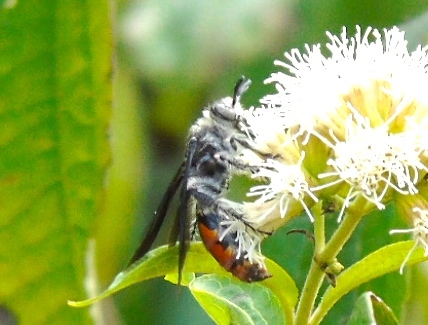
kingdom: Animalia
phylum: Arthropoda
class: Insecta
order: Hymenoptera
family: Scoliidae
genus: Dielis
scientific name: Dielis tolteca
